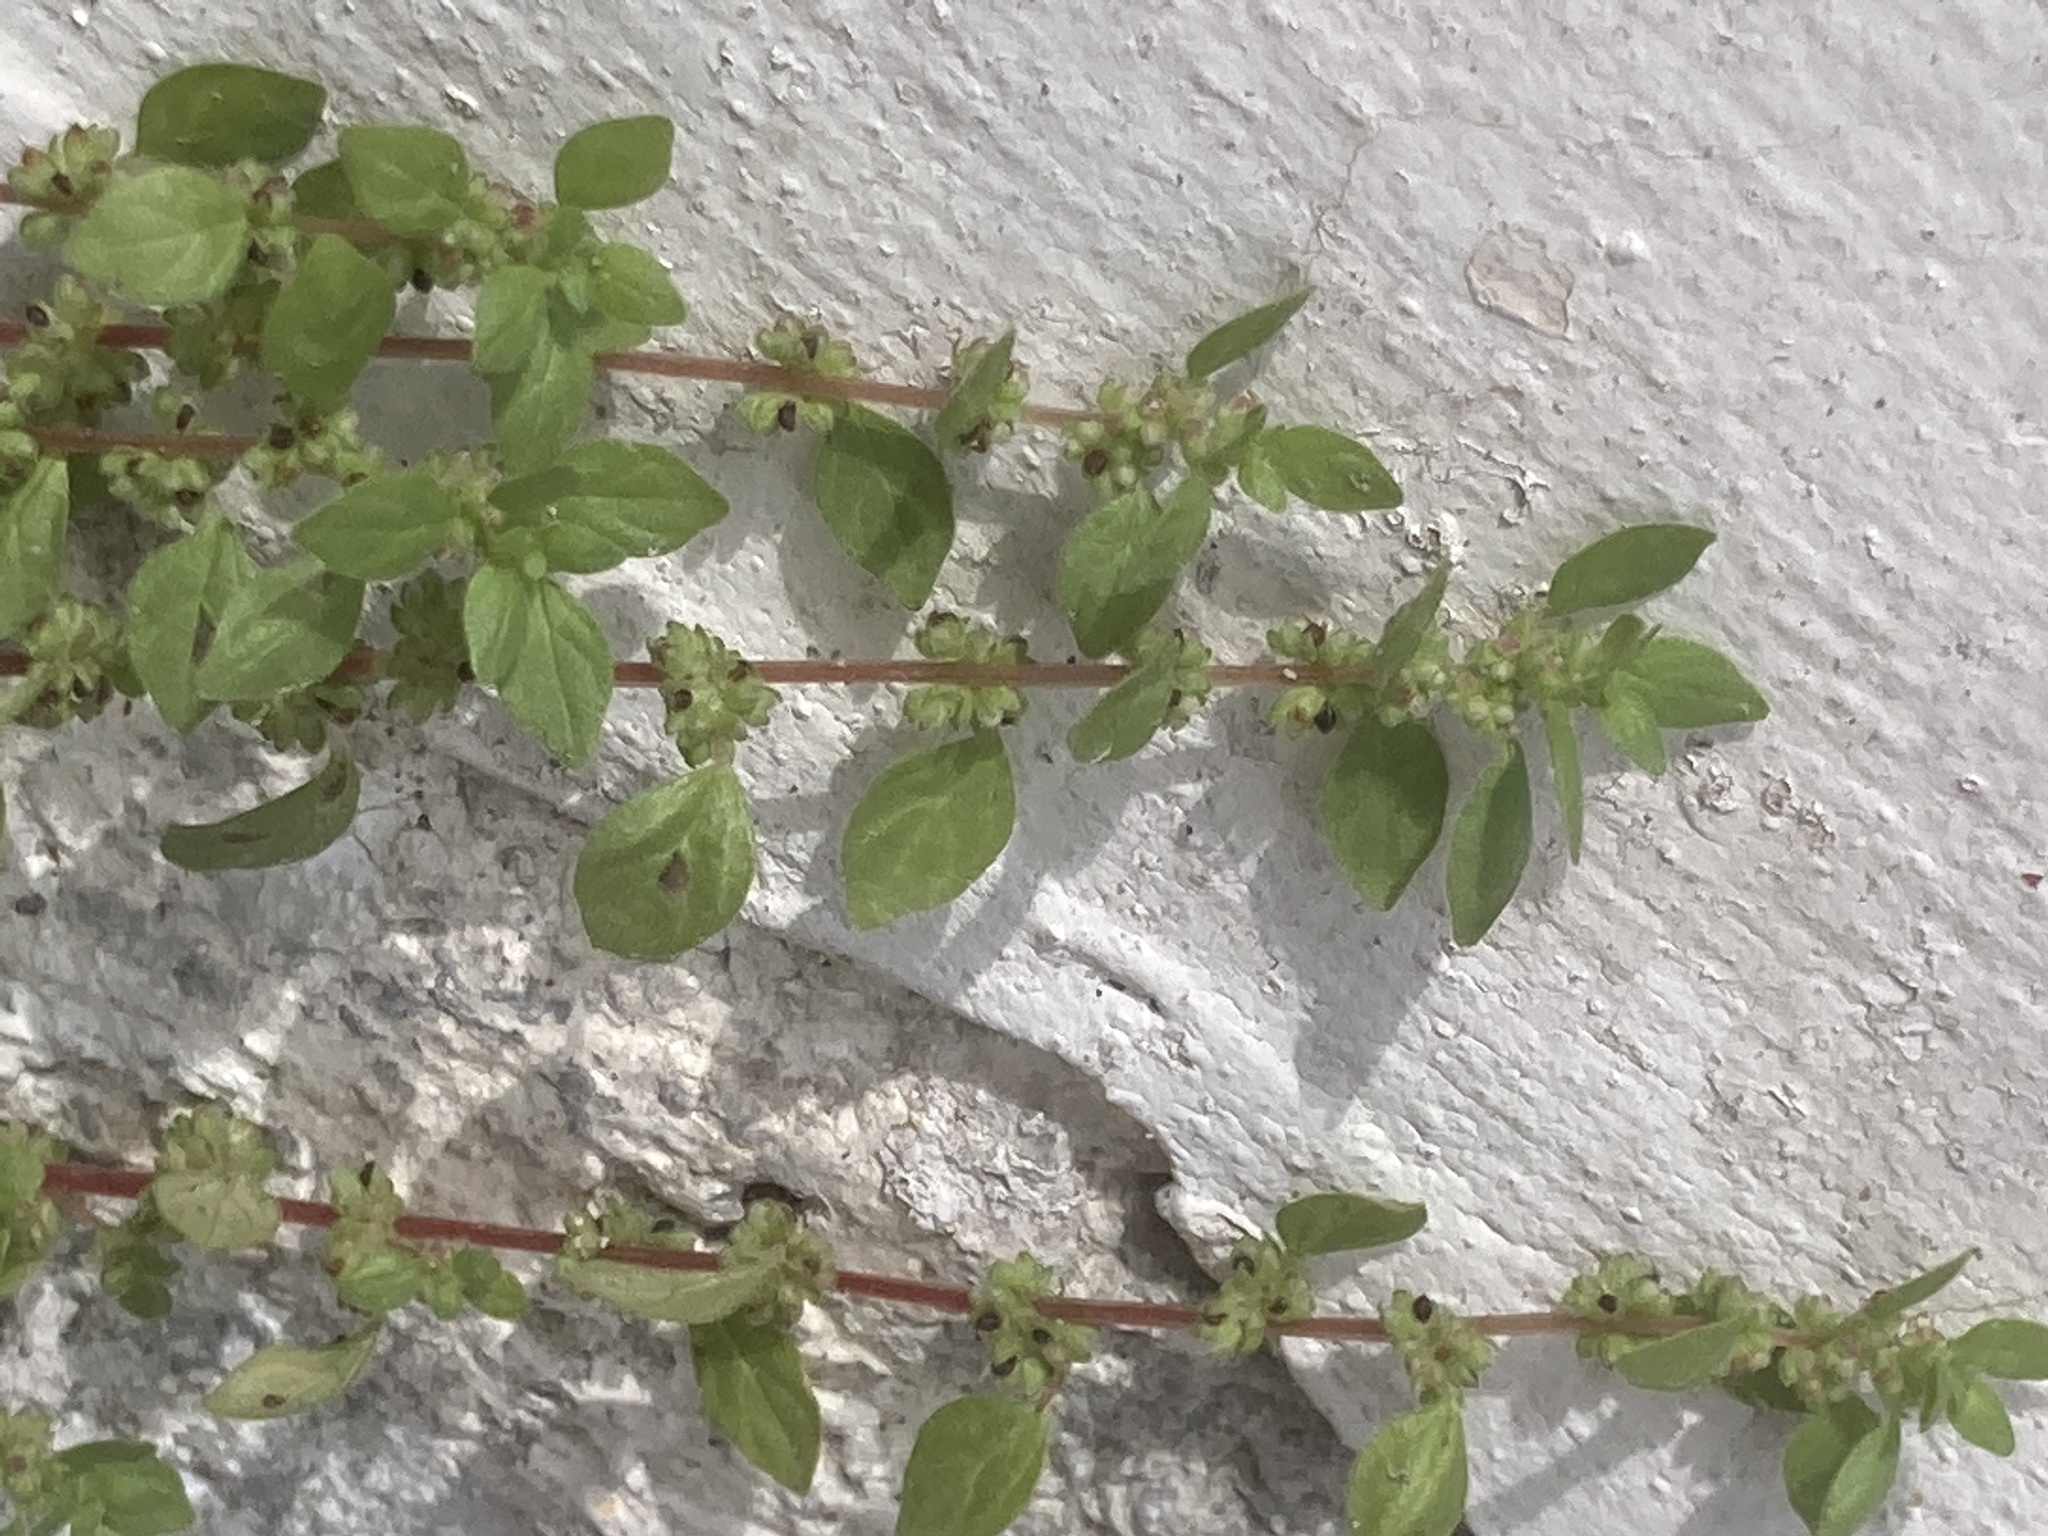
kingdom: Plantae
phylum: Tracheophyta
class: Magnoliopsida
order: Rosales
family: Urticaceae
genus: Parietaria
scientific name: Parietaria lusitanica
